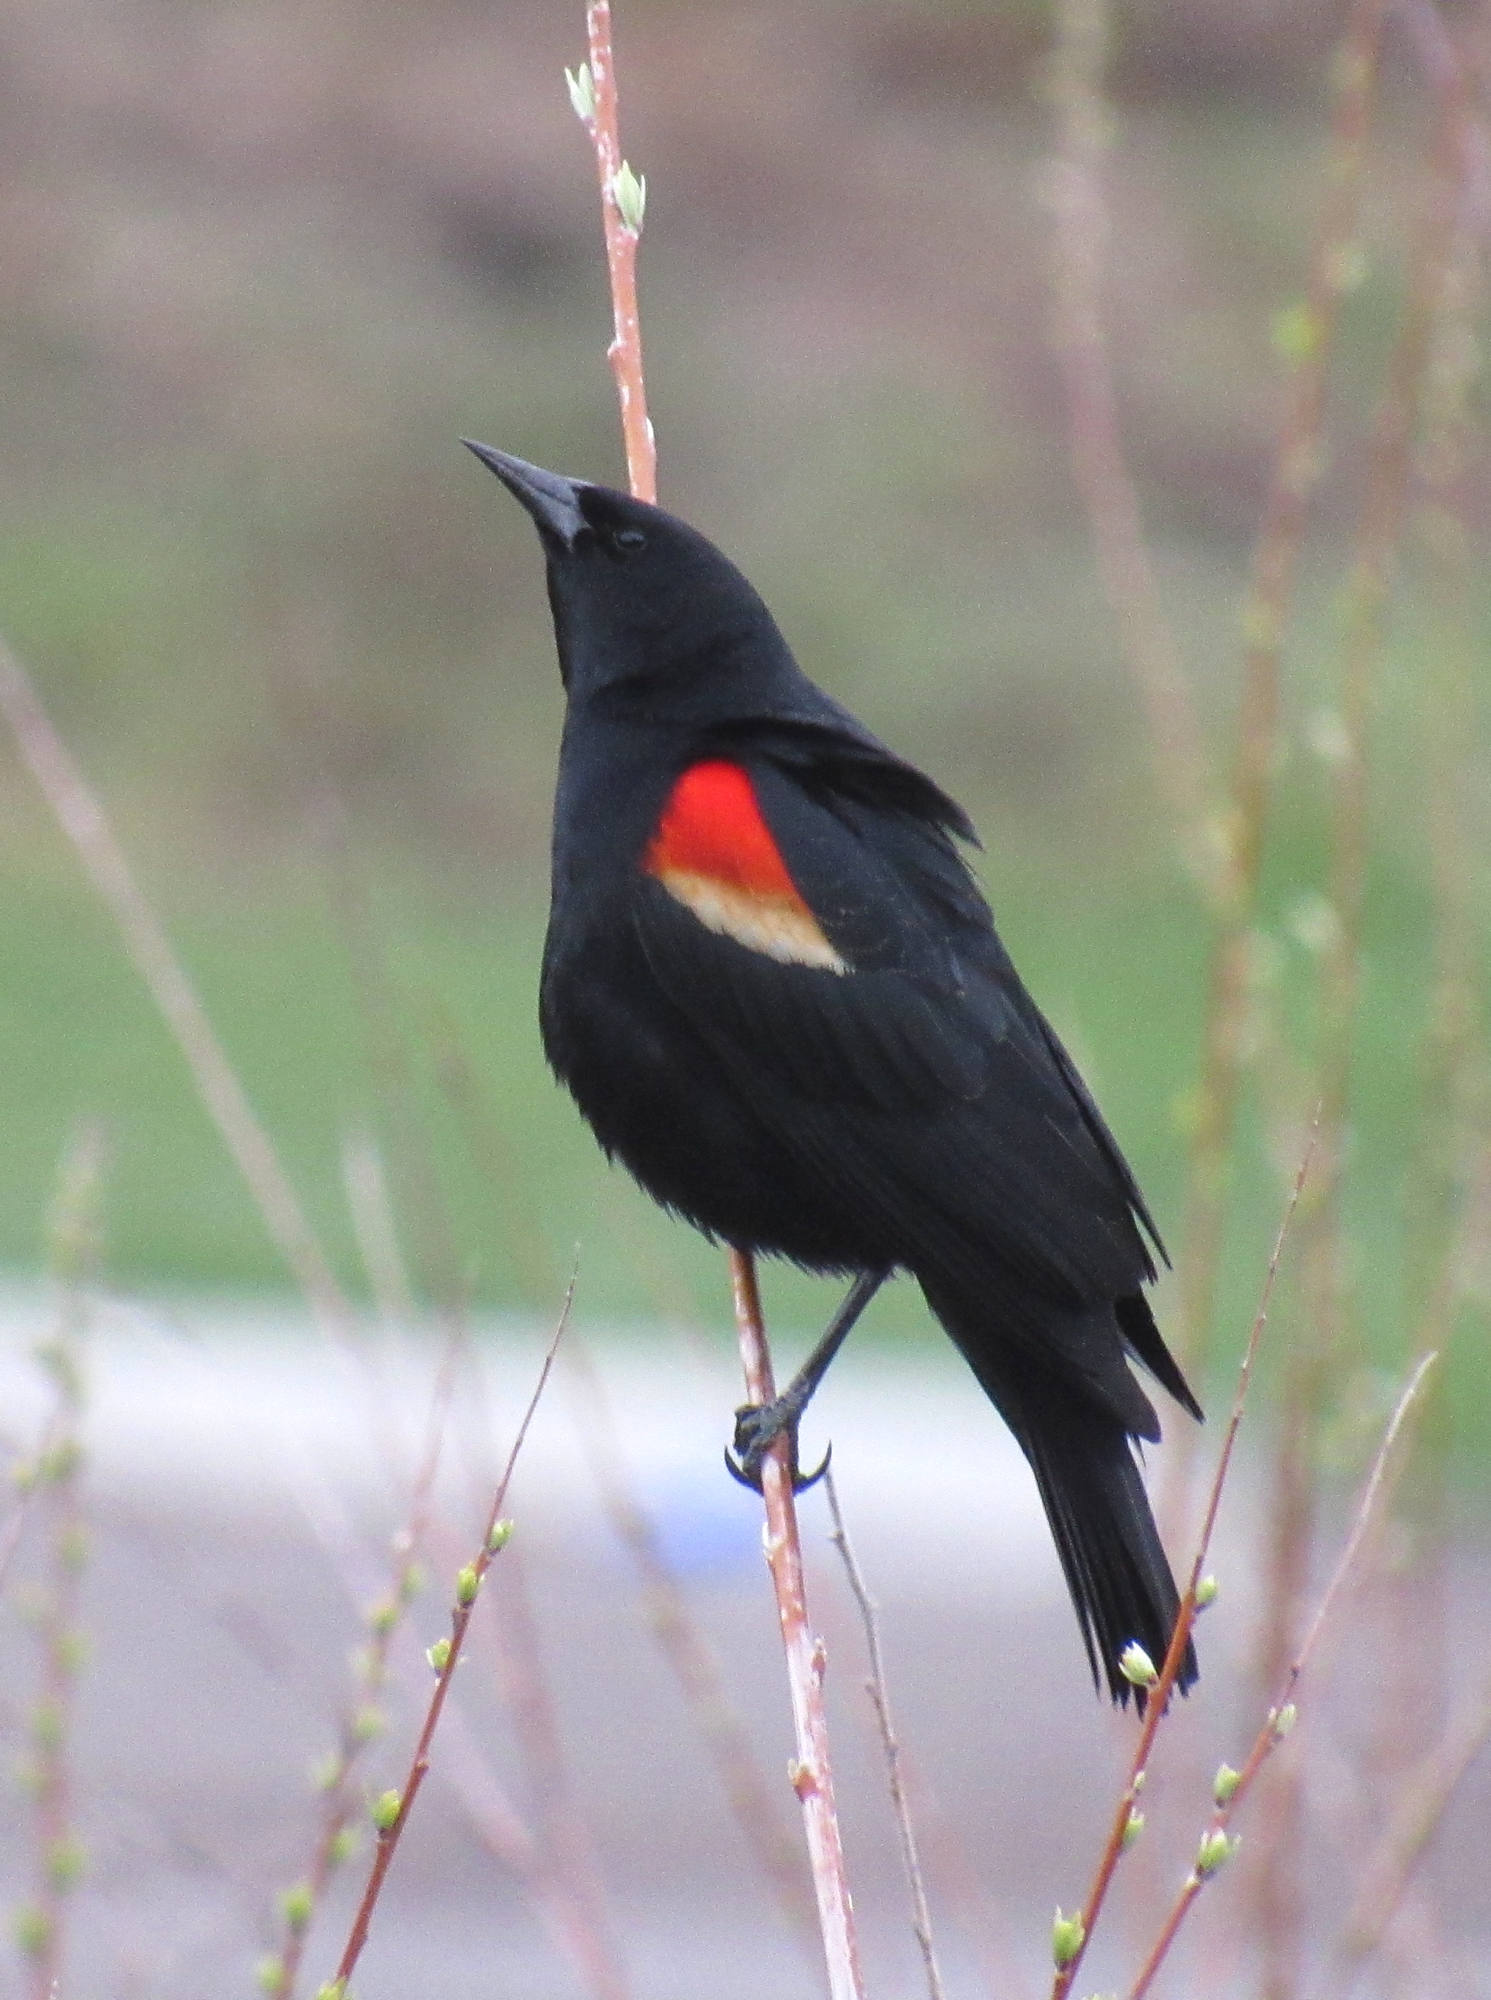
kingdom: Animalia
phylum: Chordata
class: Aves
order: Passeriformes
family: Icteridae
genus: Agelaius
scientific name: Agelaius phoeniceus
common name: Red-winged blackbird
